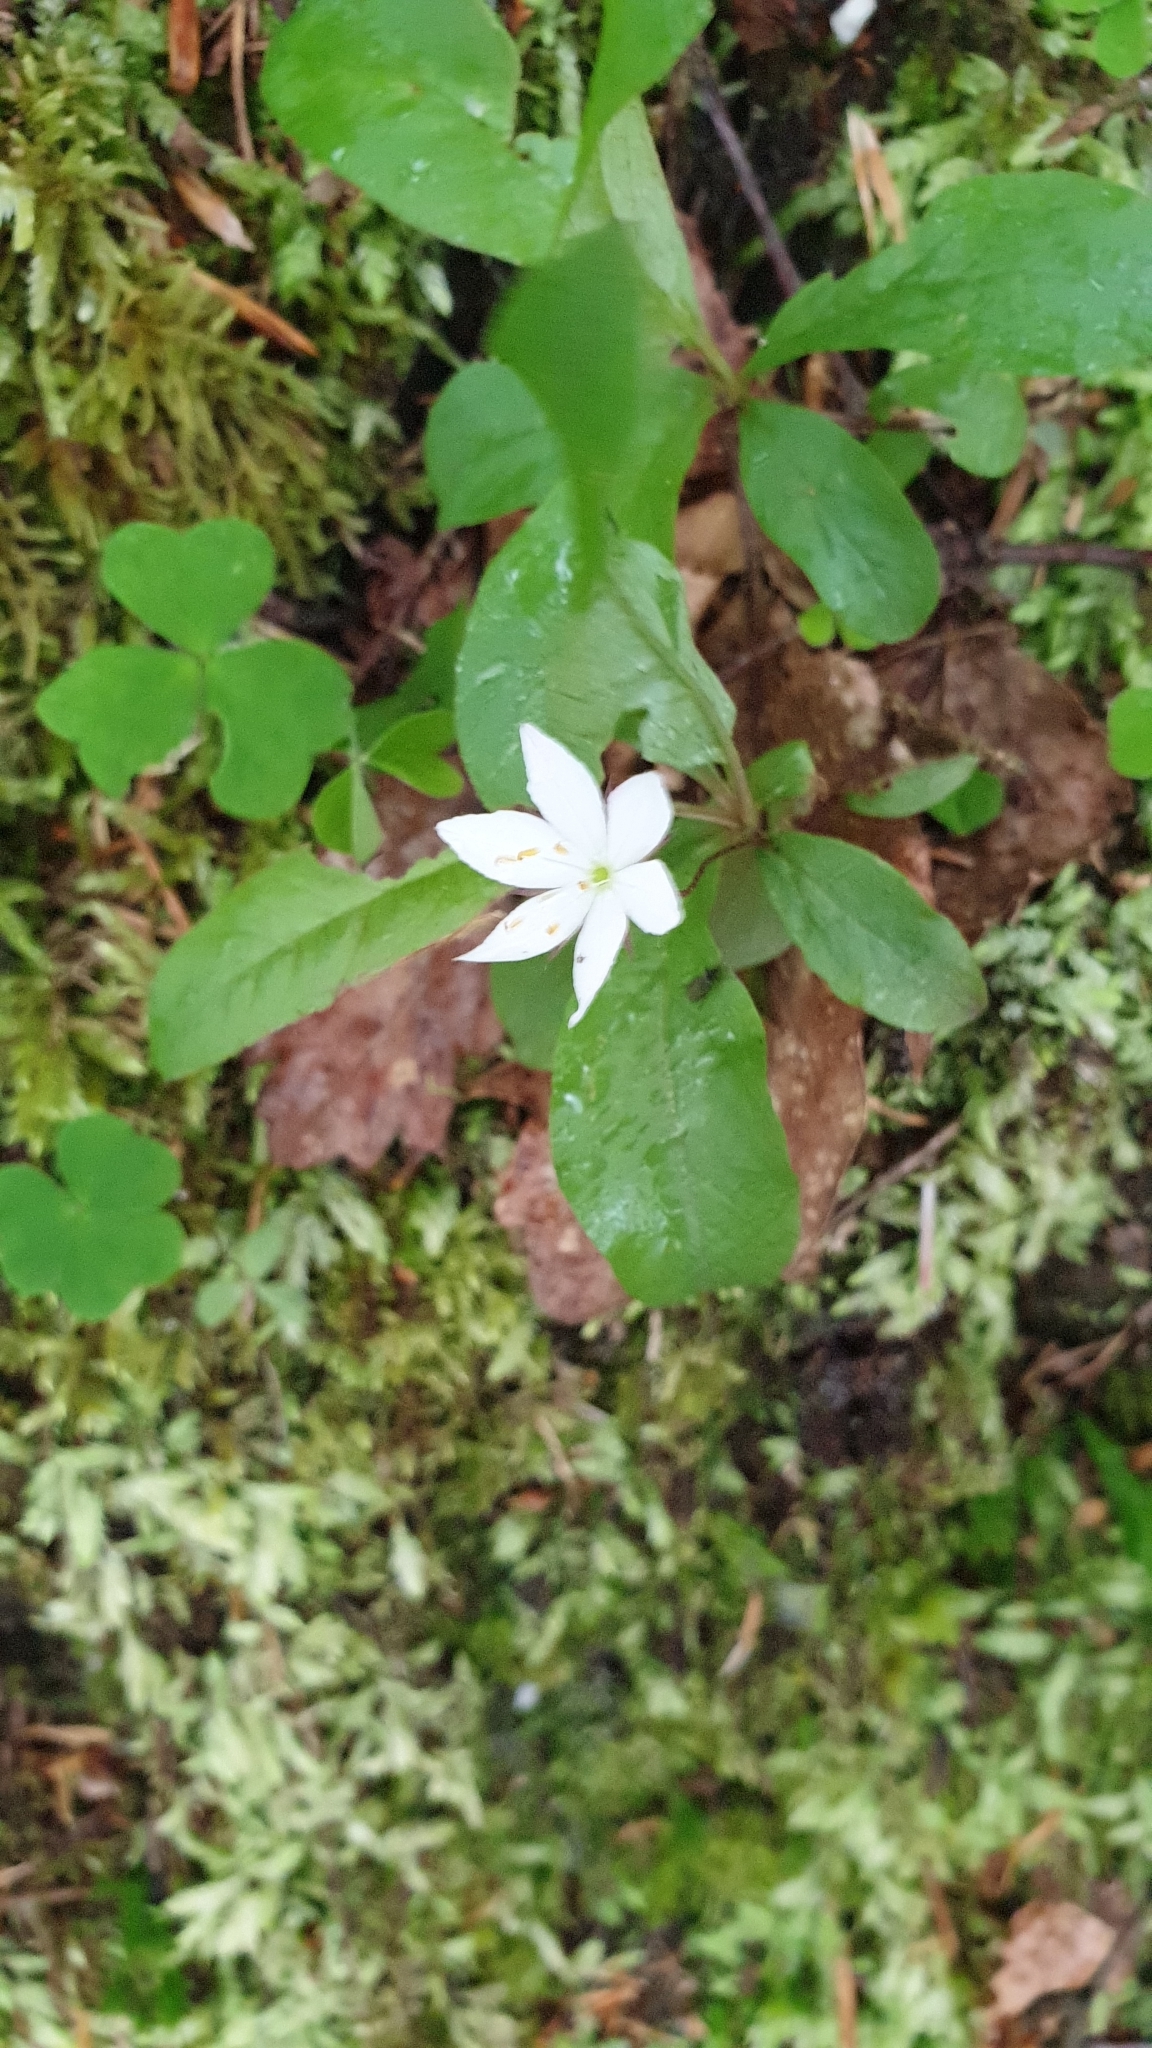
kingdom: Plantae
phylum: Tracheophyta
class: Magnoliopsida
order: Ericales
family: Primulaceae
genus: Lysimachia
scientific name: Lysimachia europaea
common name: Arctic starflower
